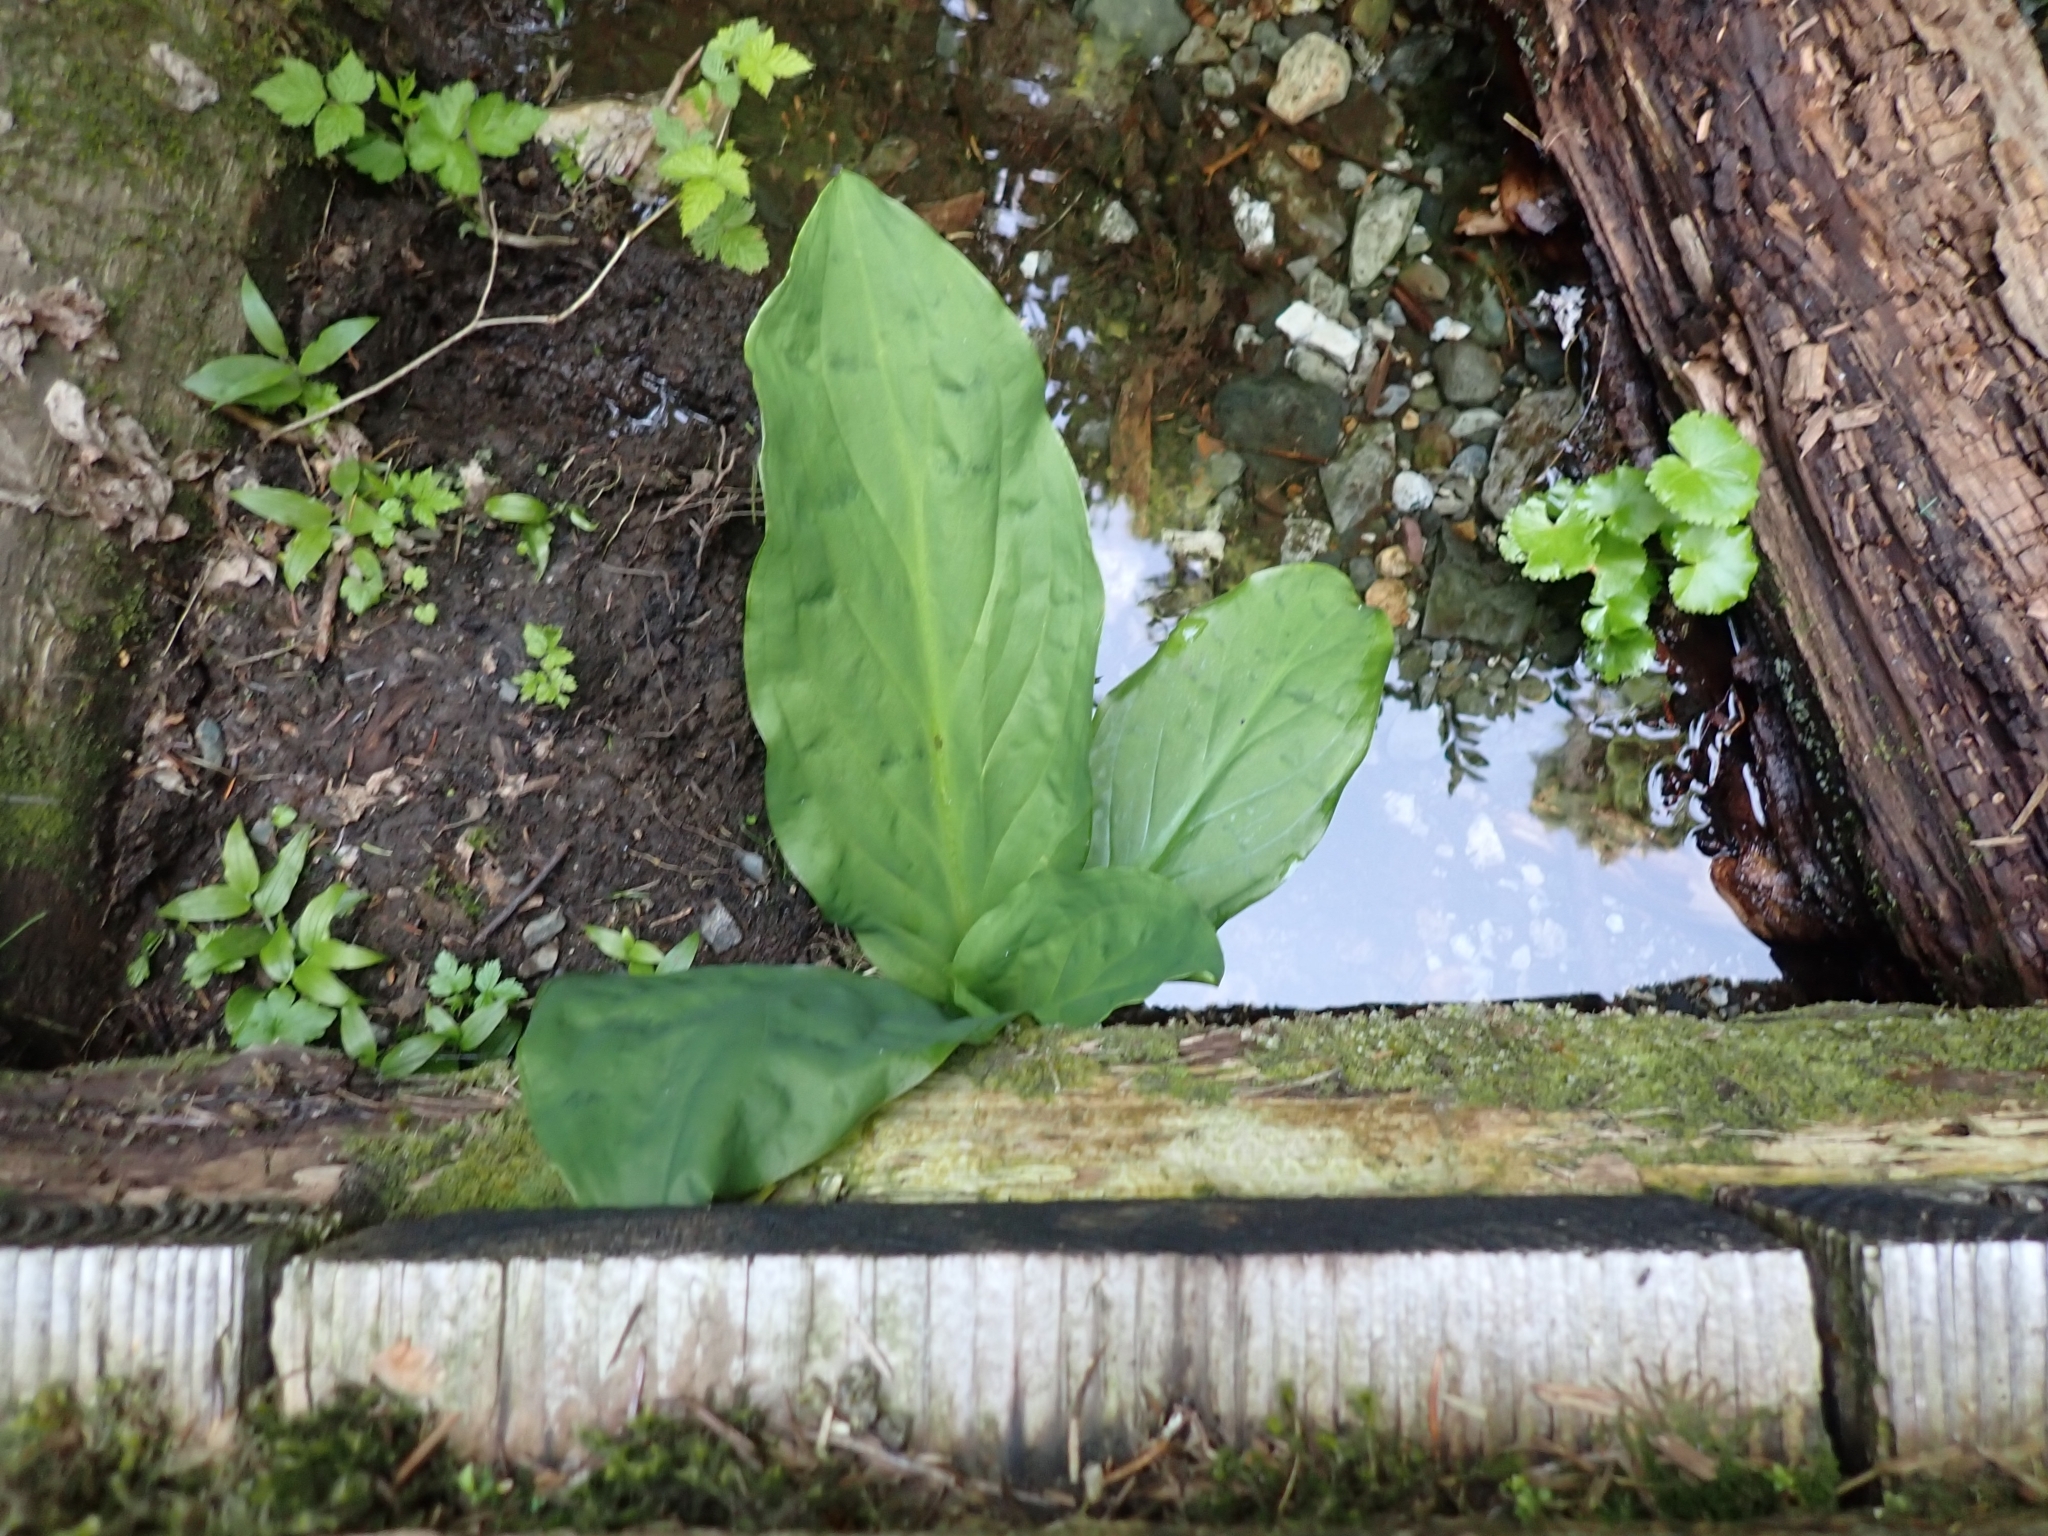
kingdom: Plantae
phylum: Tracheophyta
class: Liliopsida
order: Alismatales
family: Araceae
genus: Lysichiton
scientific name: Lysichiton americanus
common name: American skunk cabbage
